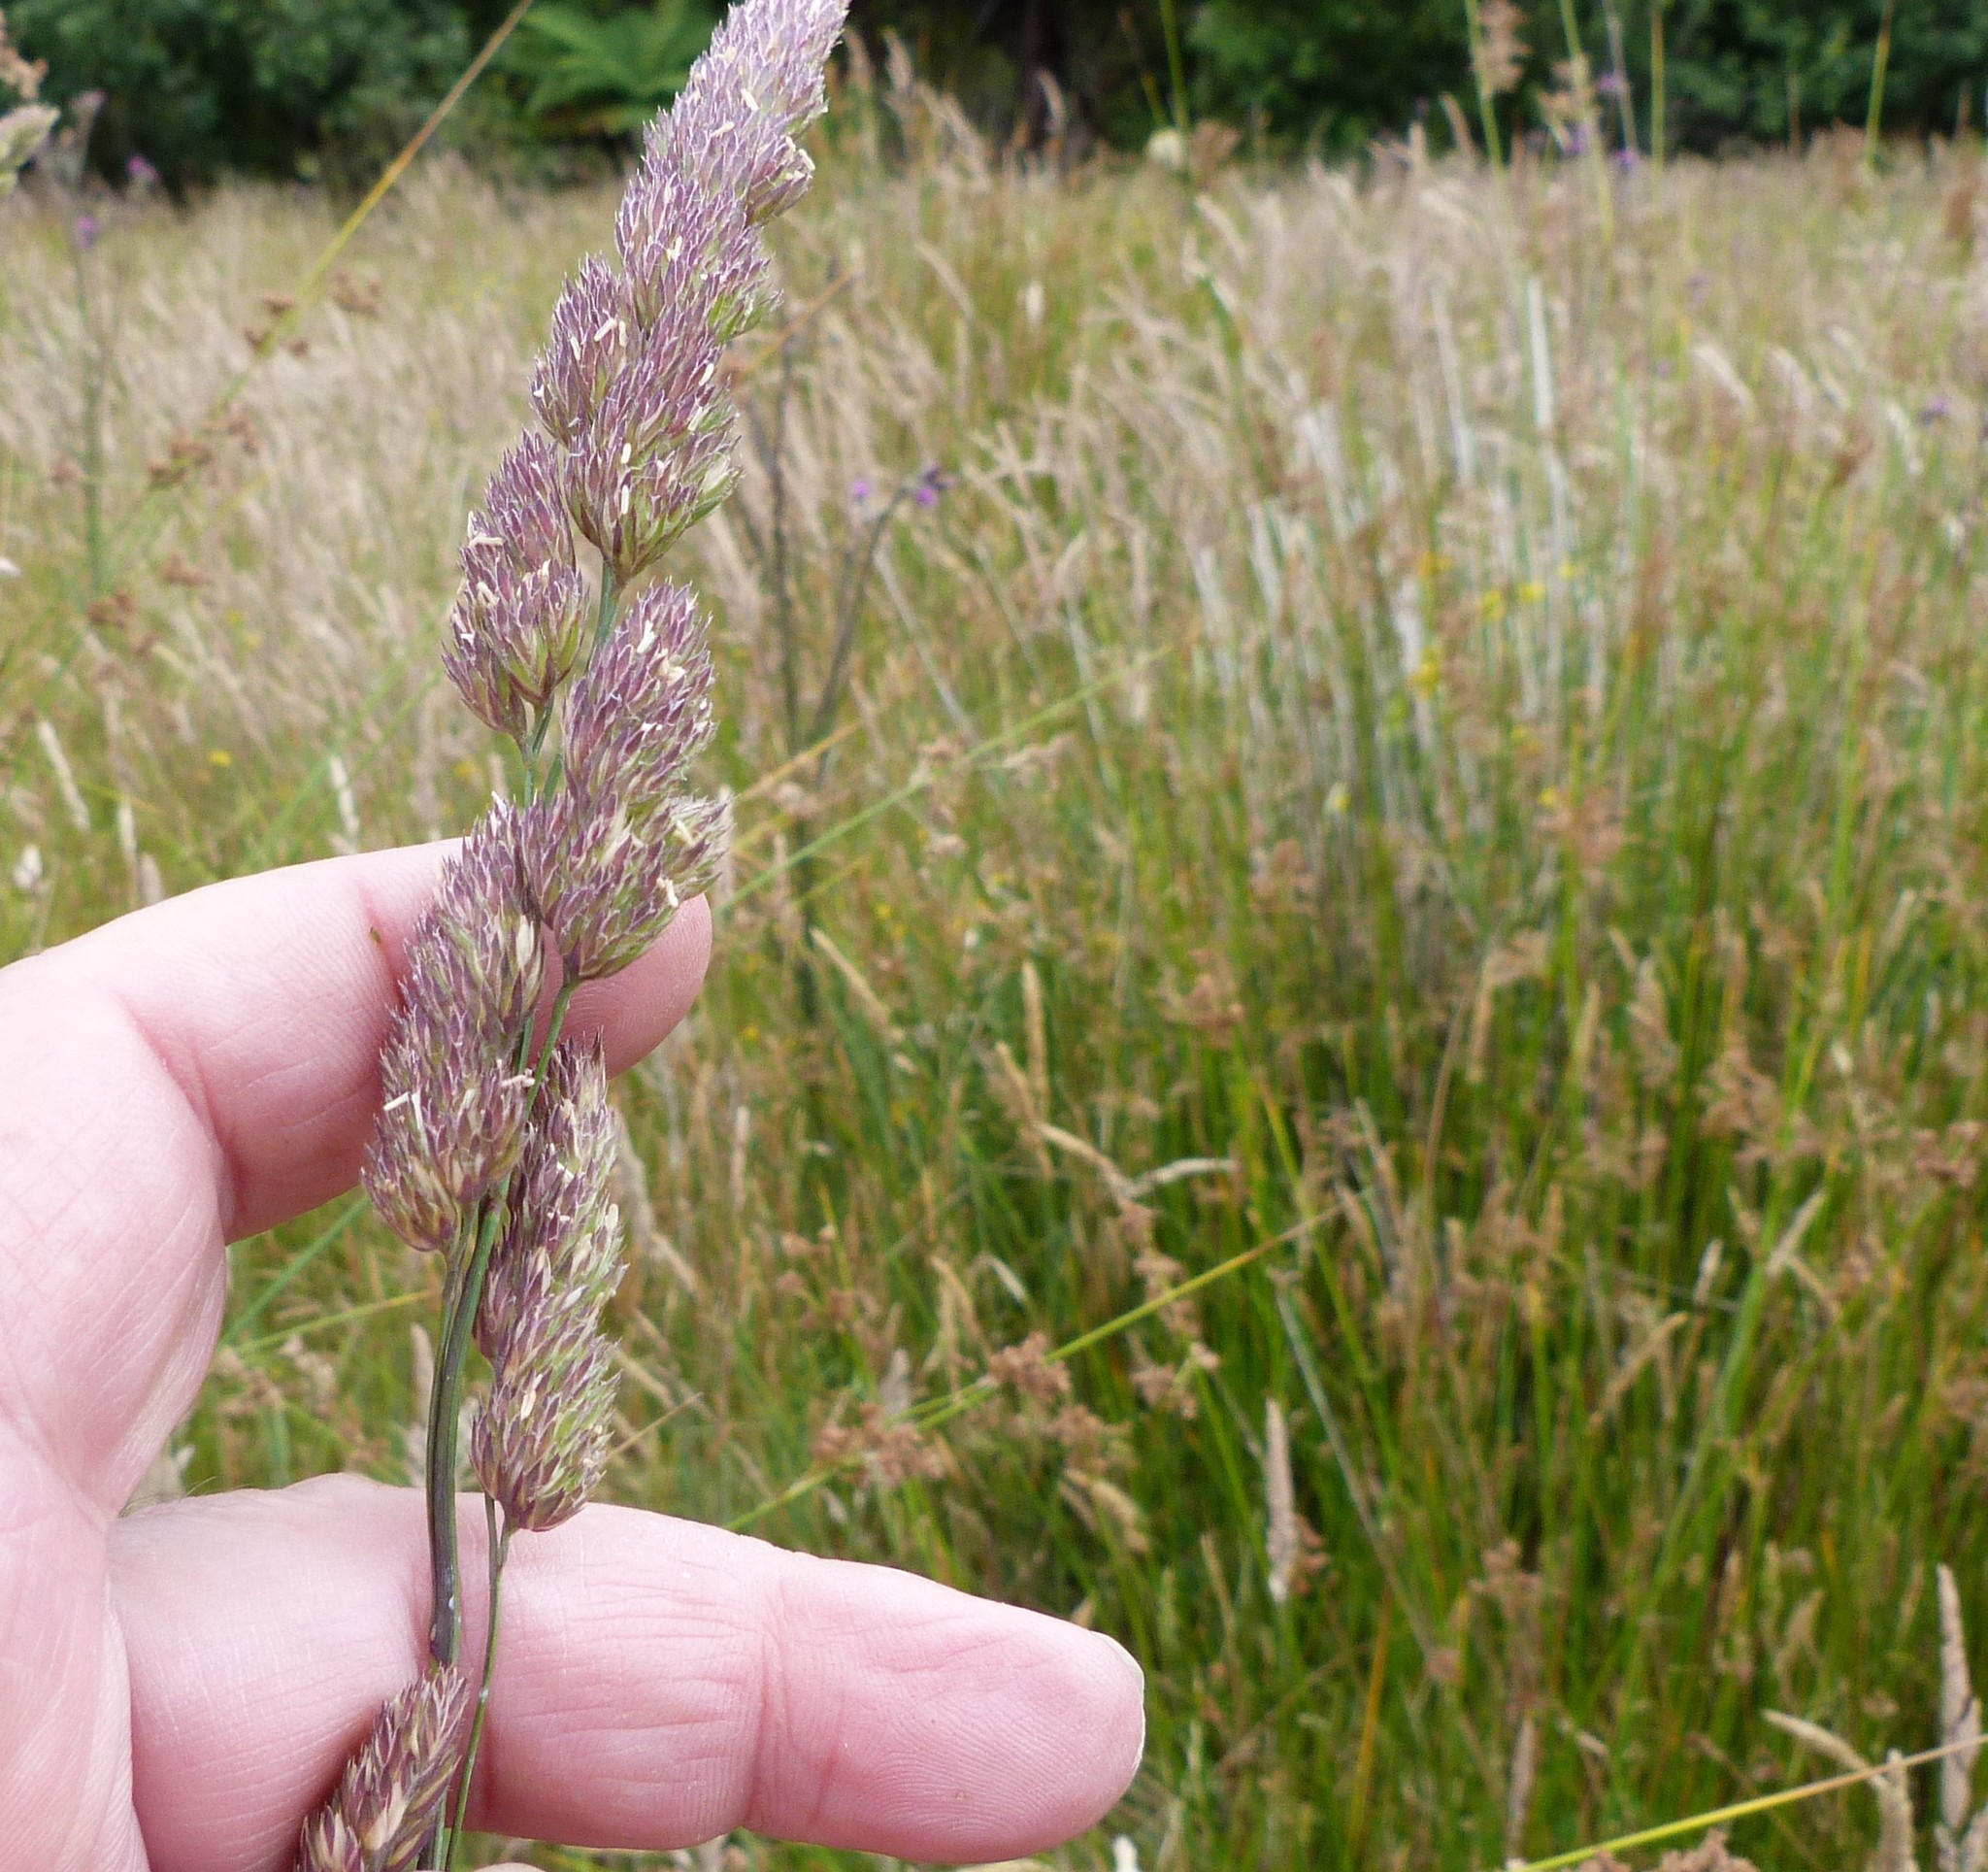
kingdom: Plantae
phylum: Tracheophyta
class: Liliopsida
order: Poales
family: Poaceae
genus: Dactylis
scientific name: Dactylis glomerata
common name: Orchardgrass
